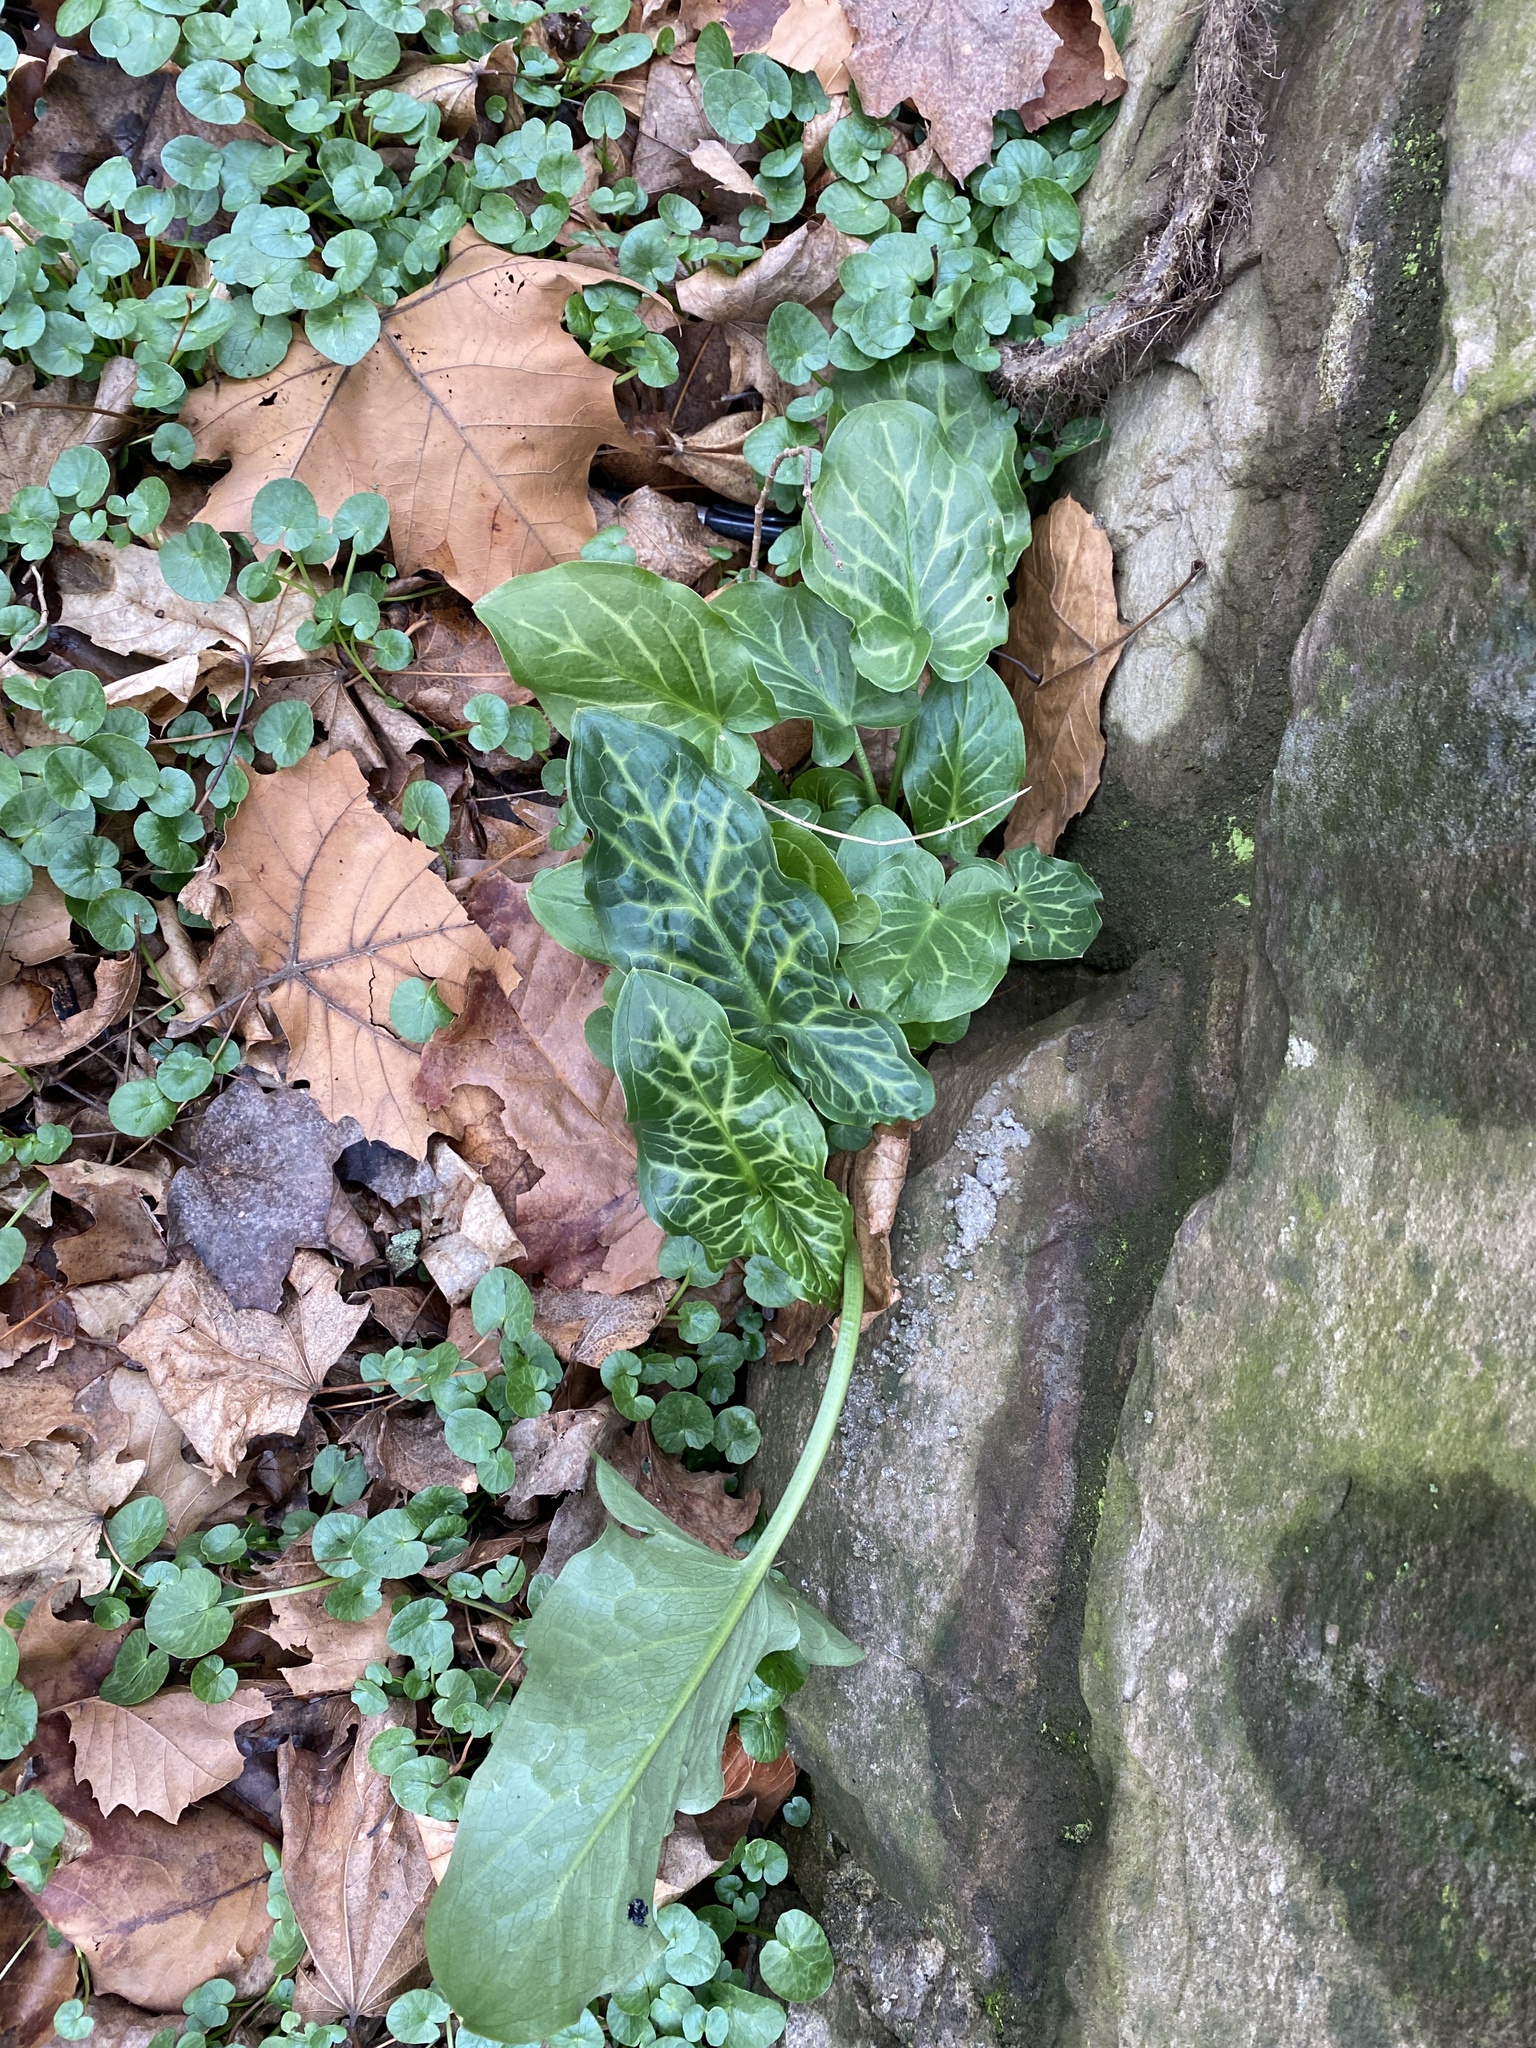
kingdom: Plantae
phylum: Tracheophyta
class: Liliopsida
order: Alismatales
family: Araceae
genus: Arum
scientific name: Arum italicum
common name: Italian lords-and-ladies
